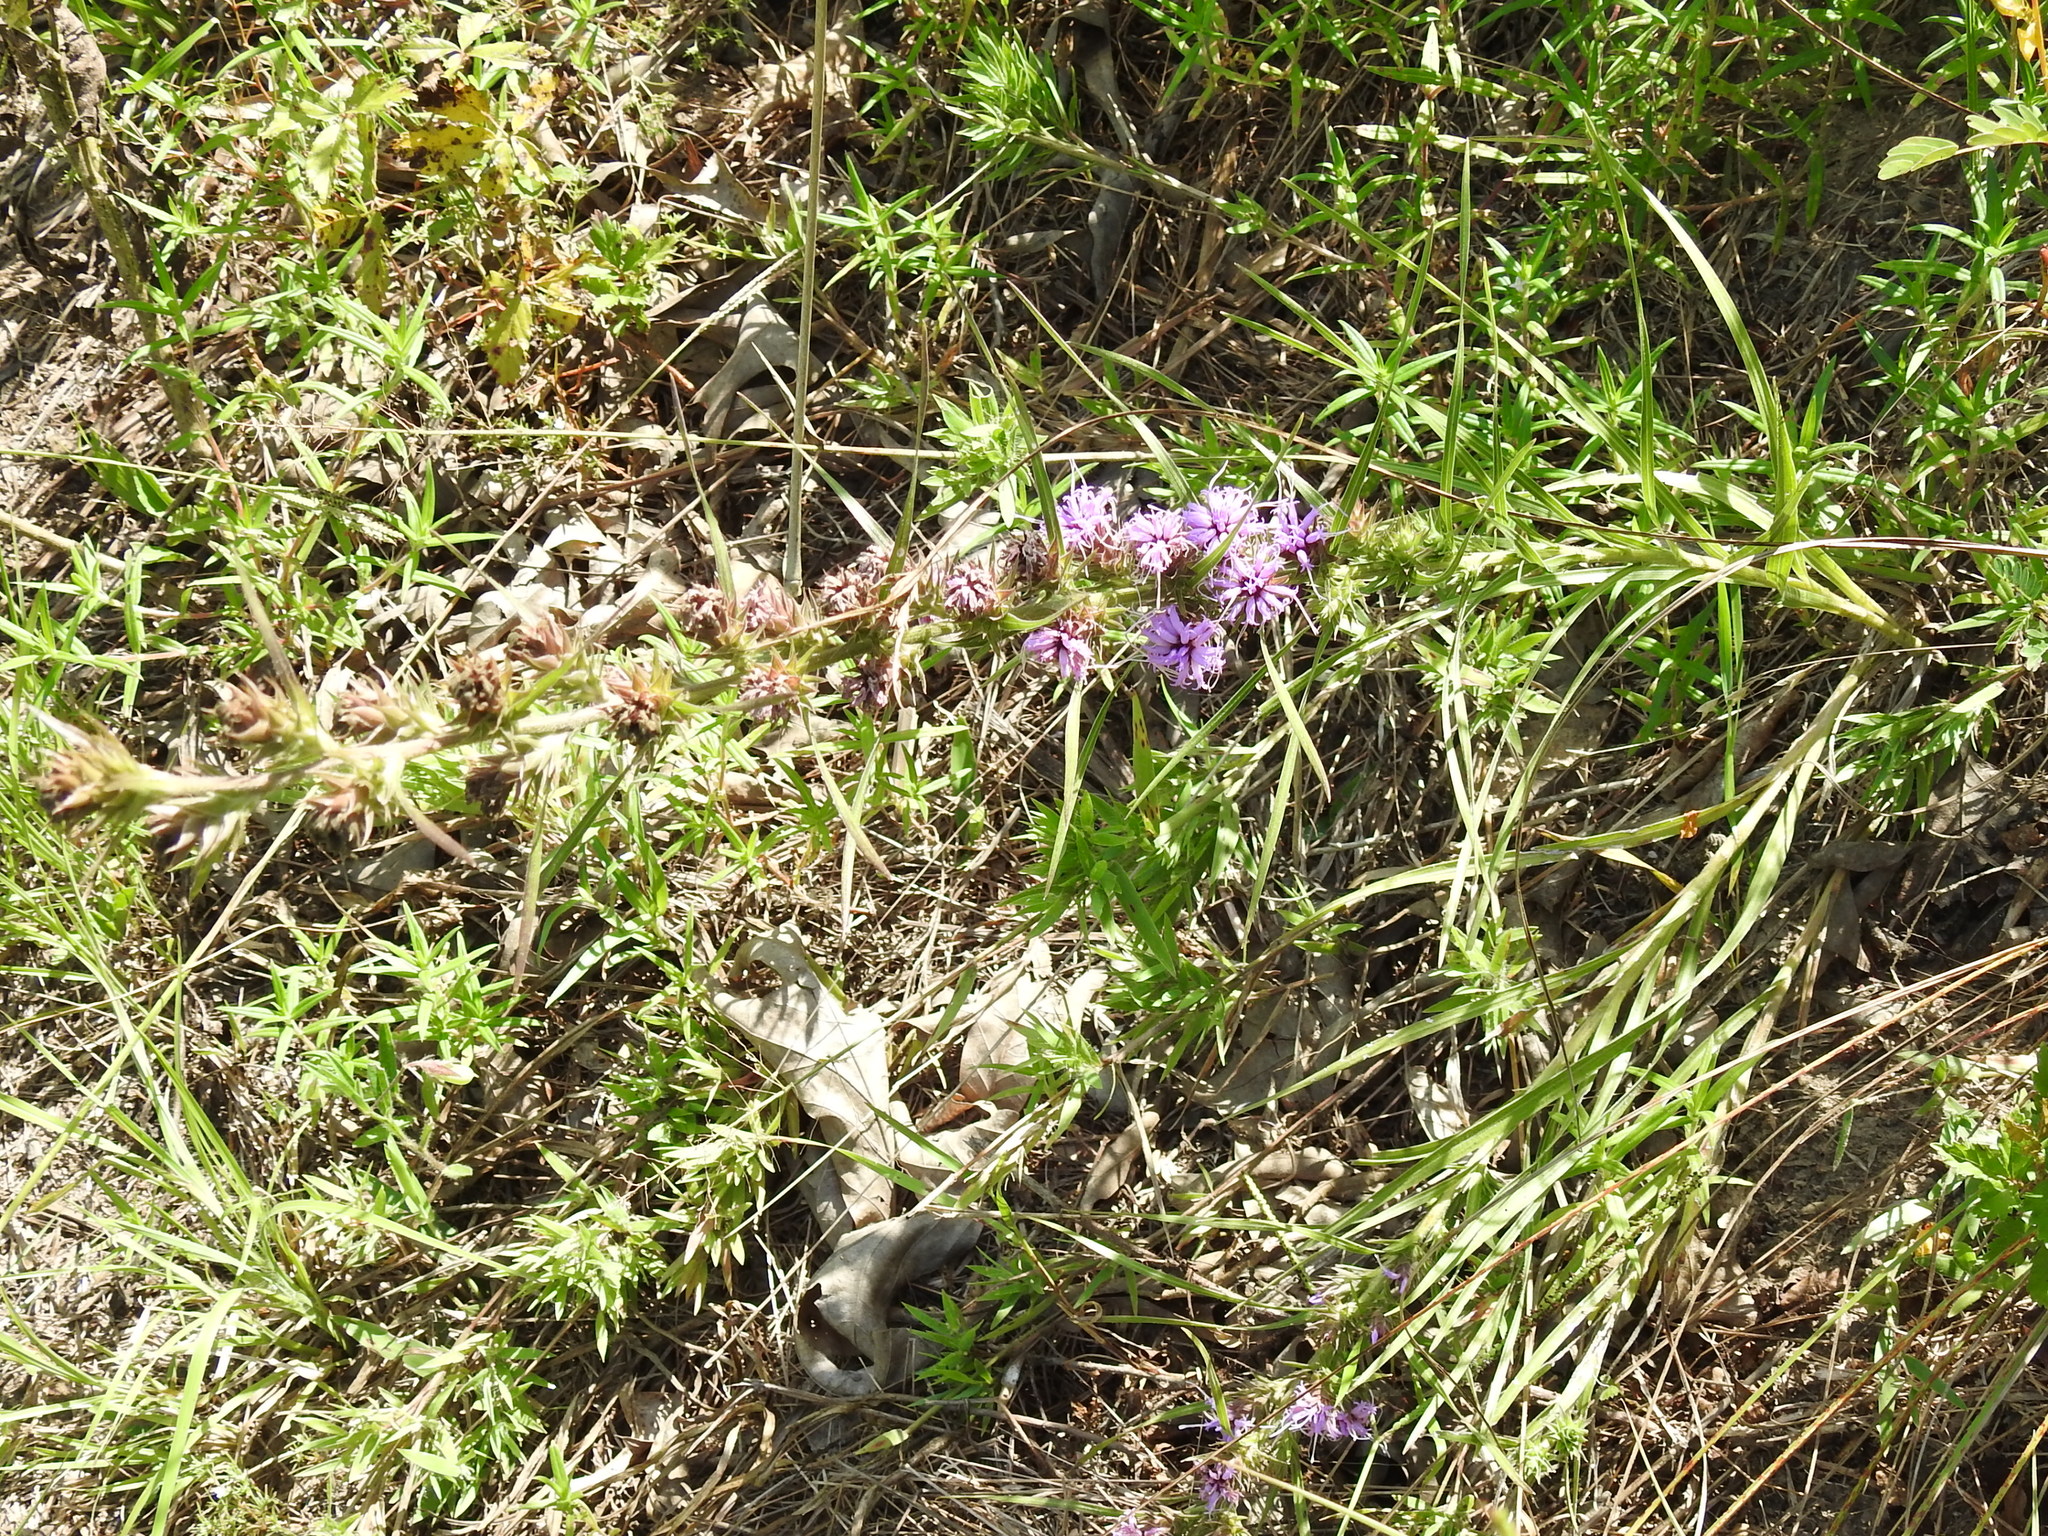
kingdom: Plantae
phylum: Tracheophyta
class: Magnoliopsida
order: Asterales
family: Asteraceae
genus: Liatris
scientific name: Liatris squarrosa
